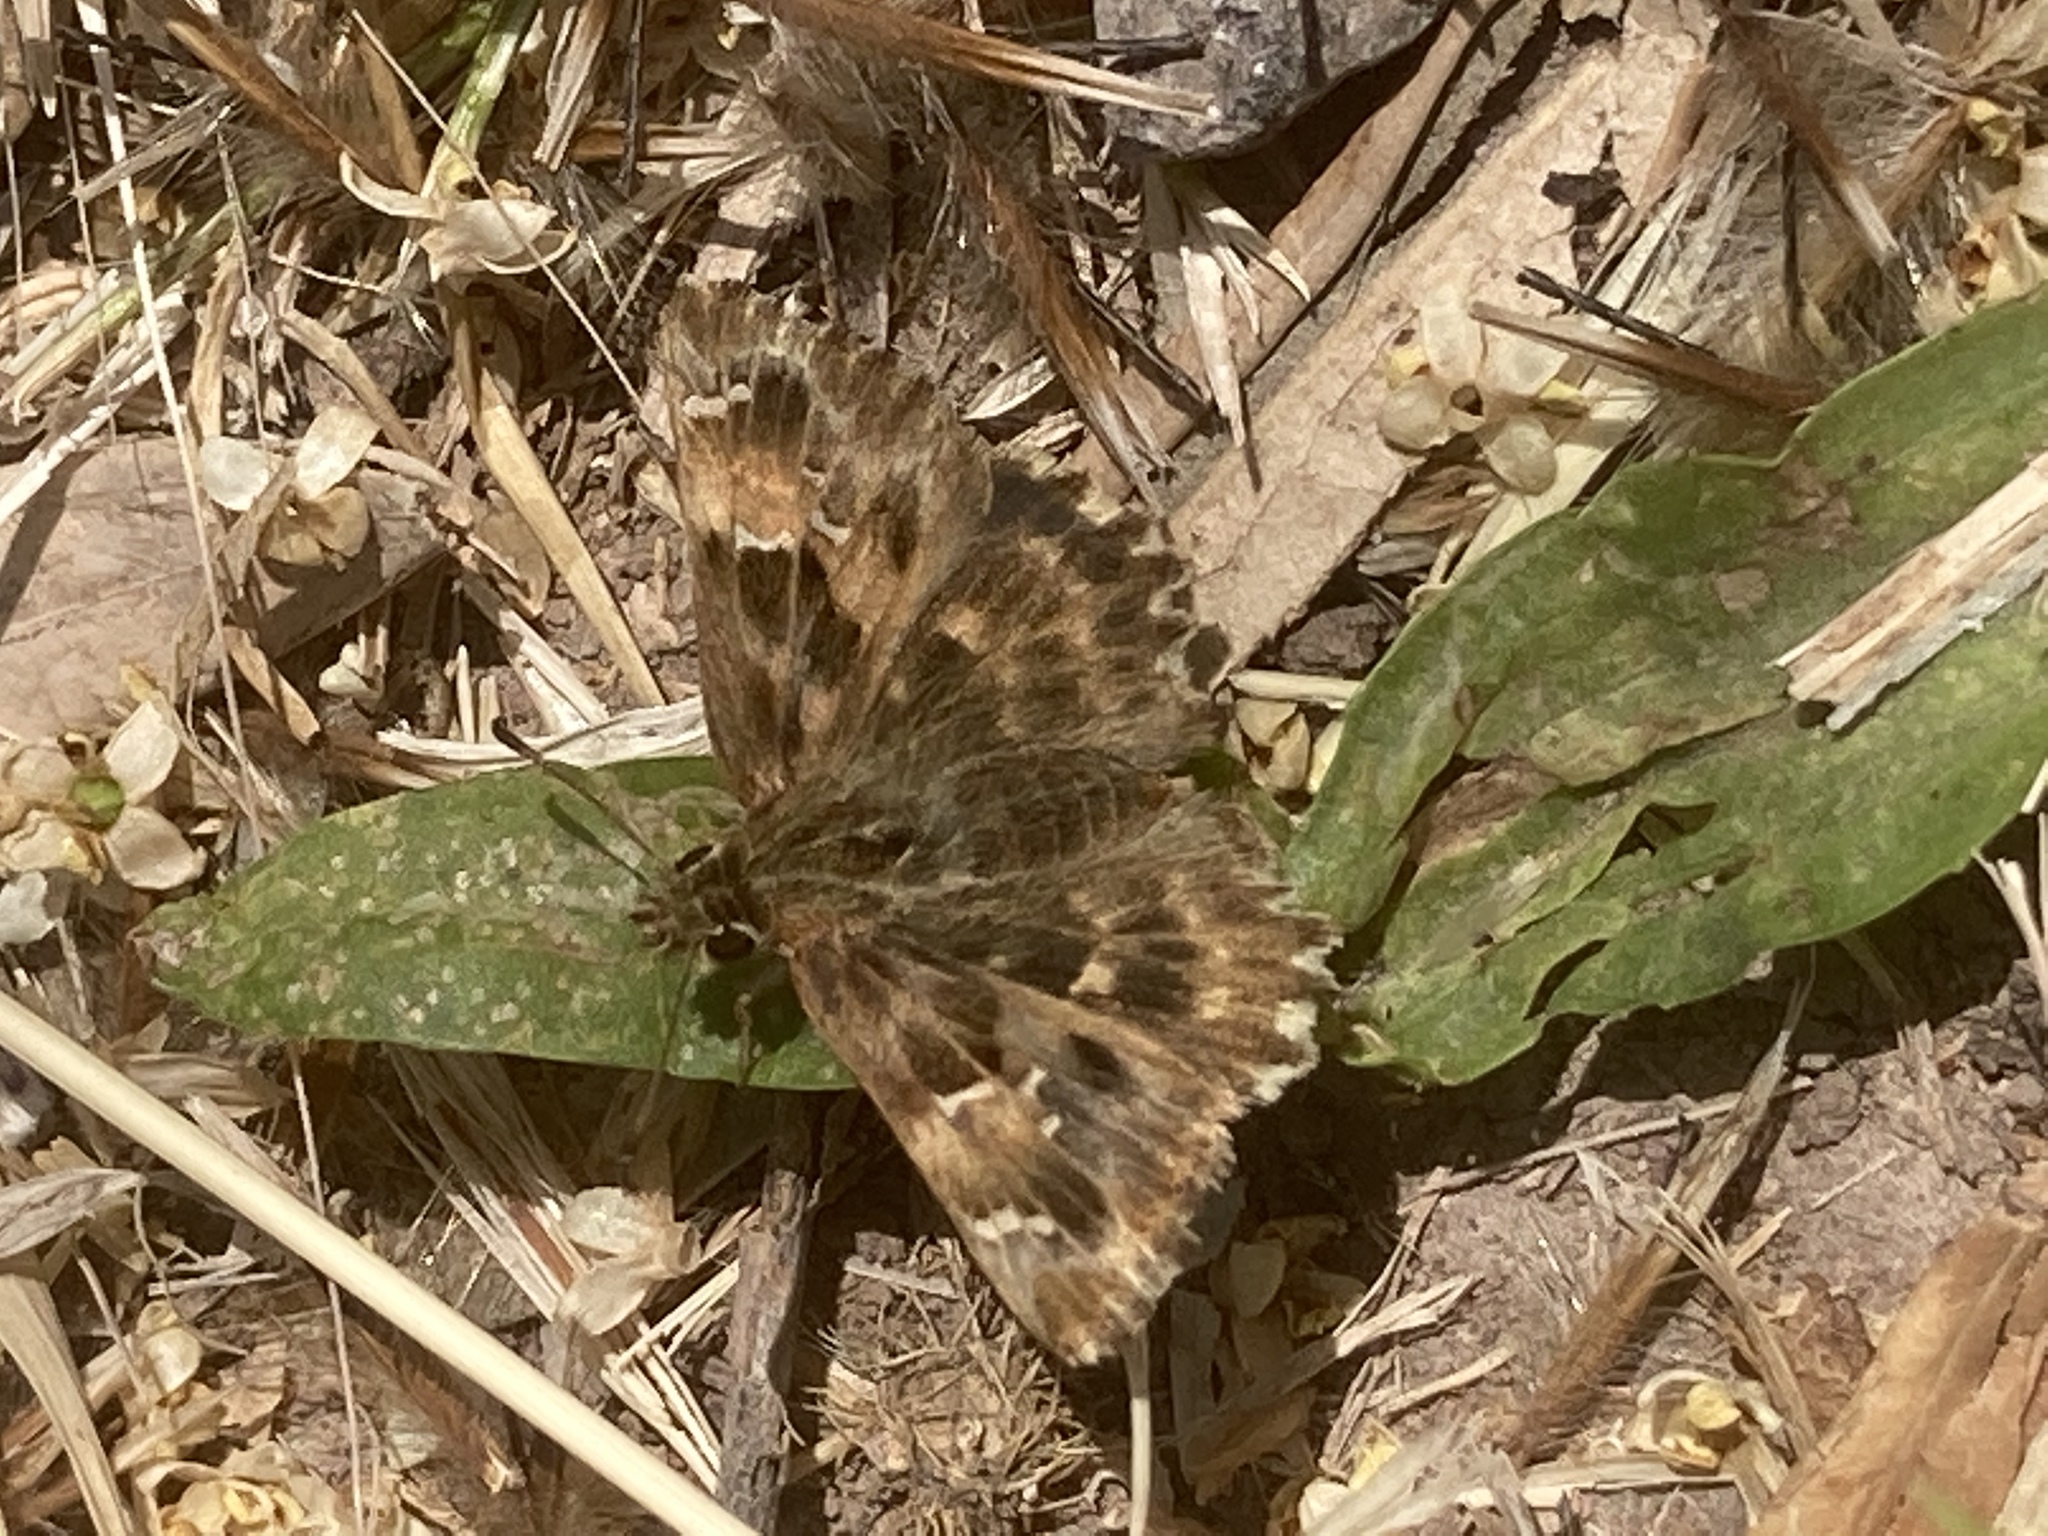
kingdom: Animalia
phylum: Arthropoda
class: Insecta
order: Lepidoptera
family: Hesperiidae
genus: Carcharodus
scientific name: Carcharodus alceae
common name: Mallow skipper
